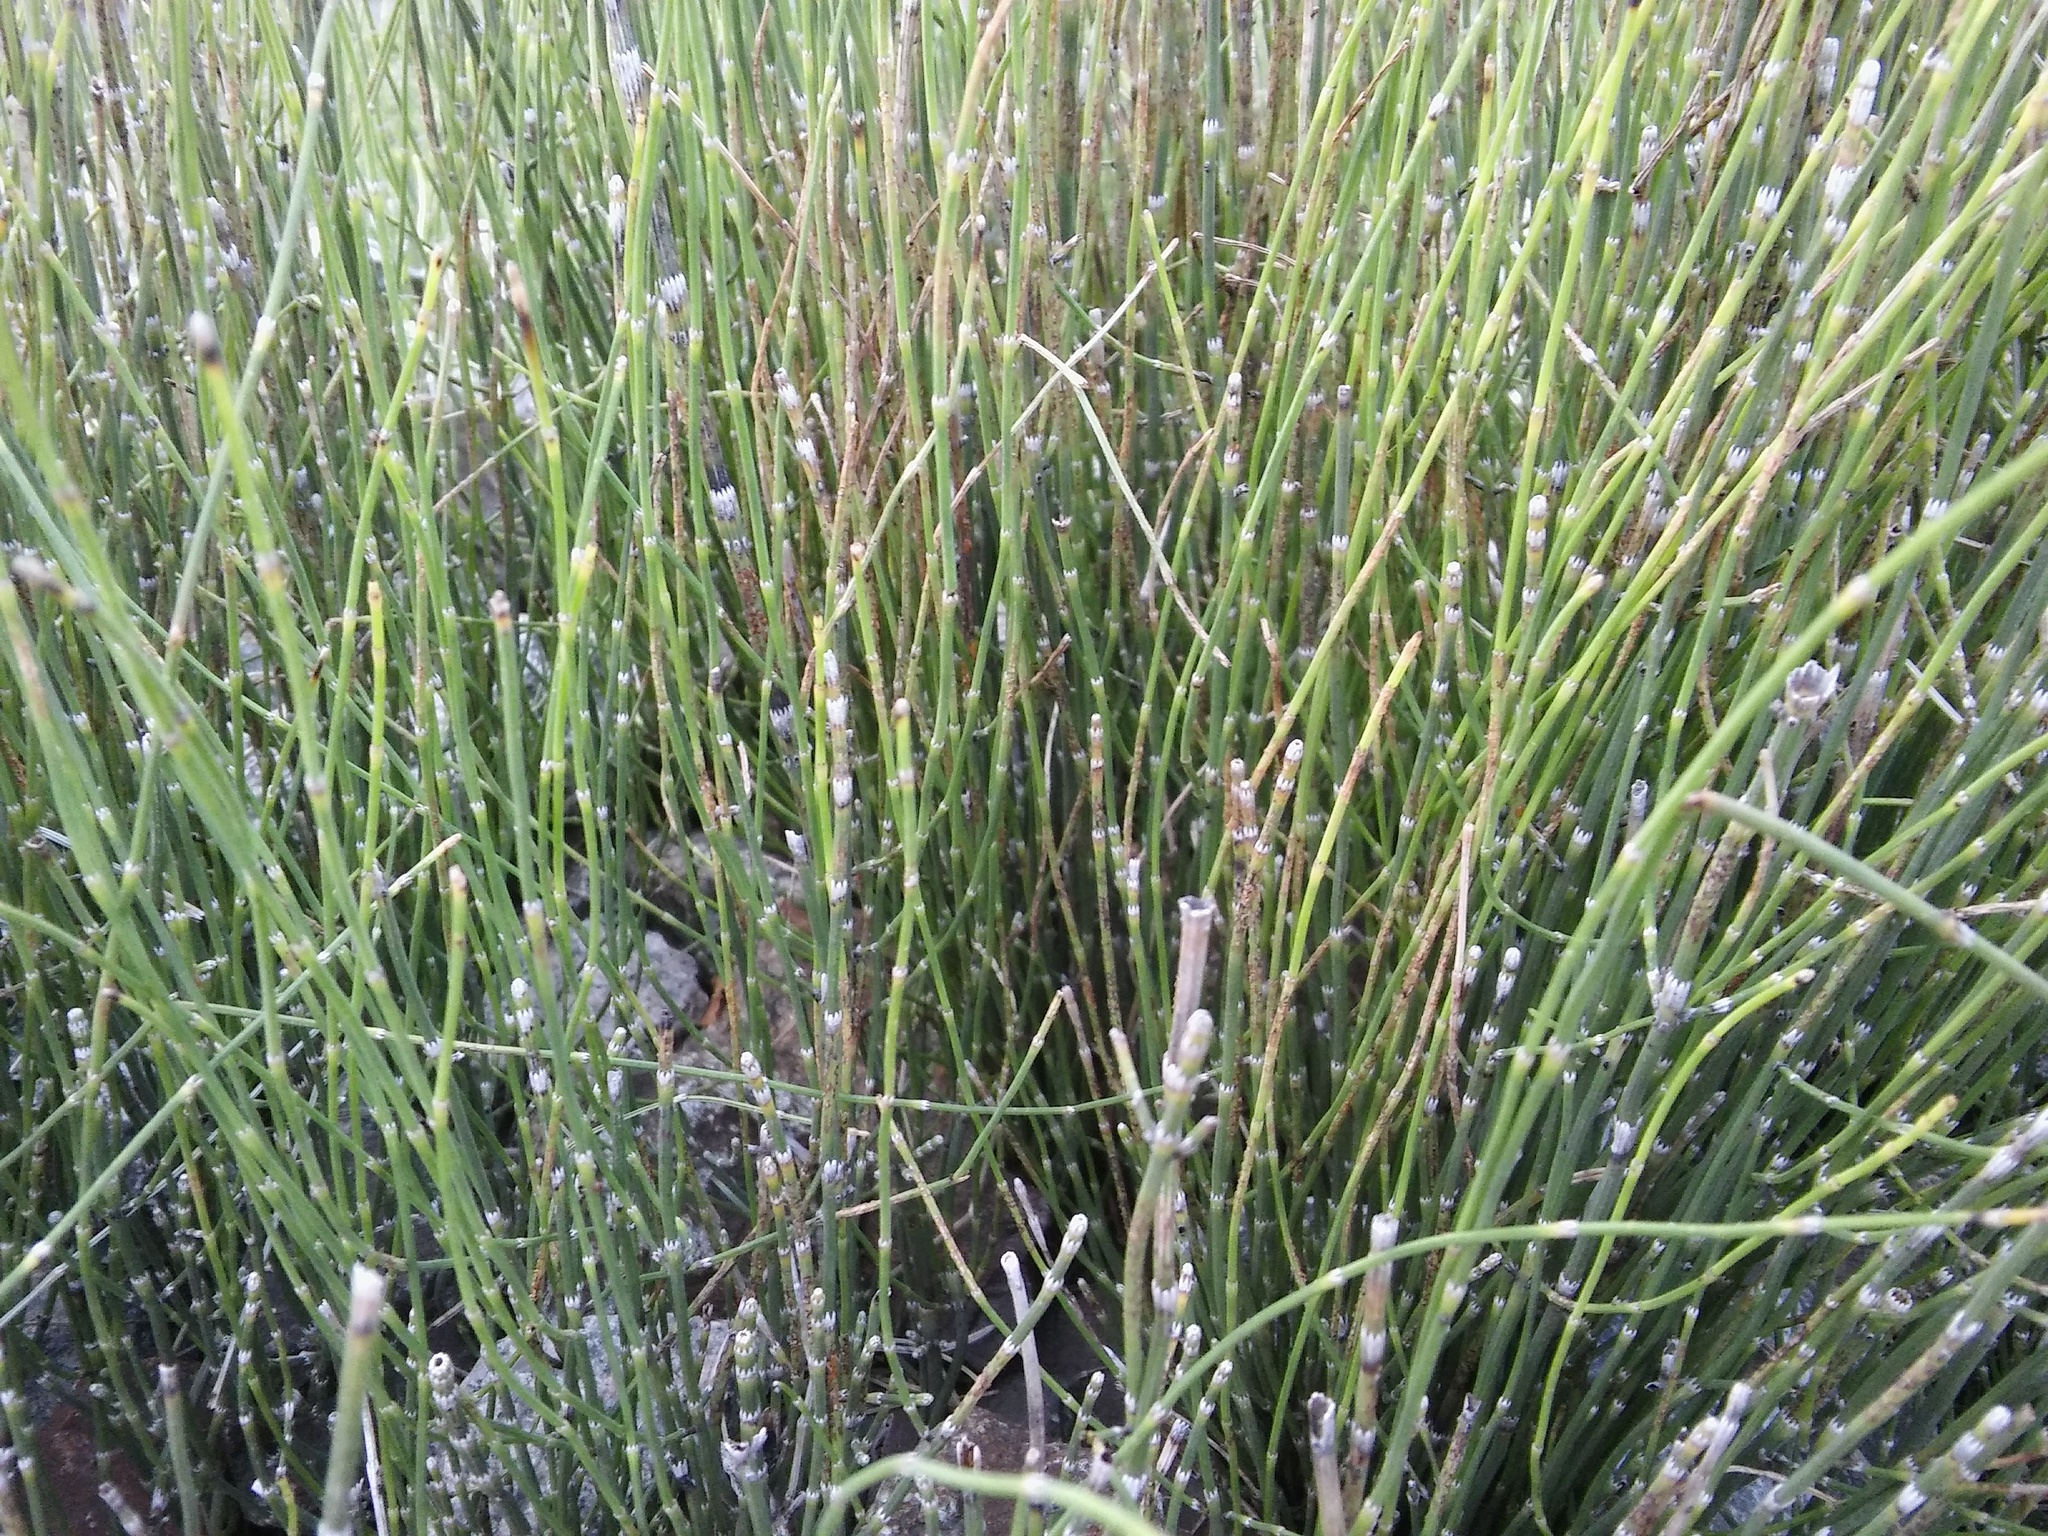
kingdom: Fungi
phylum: Ascomycota
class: Leotiomycetes
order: Helotiales
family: Helotiaceae
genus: Stamnaria
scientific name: Stamnaria
